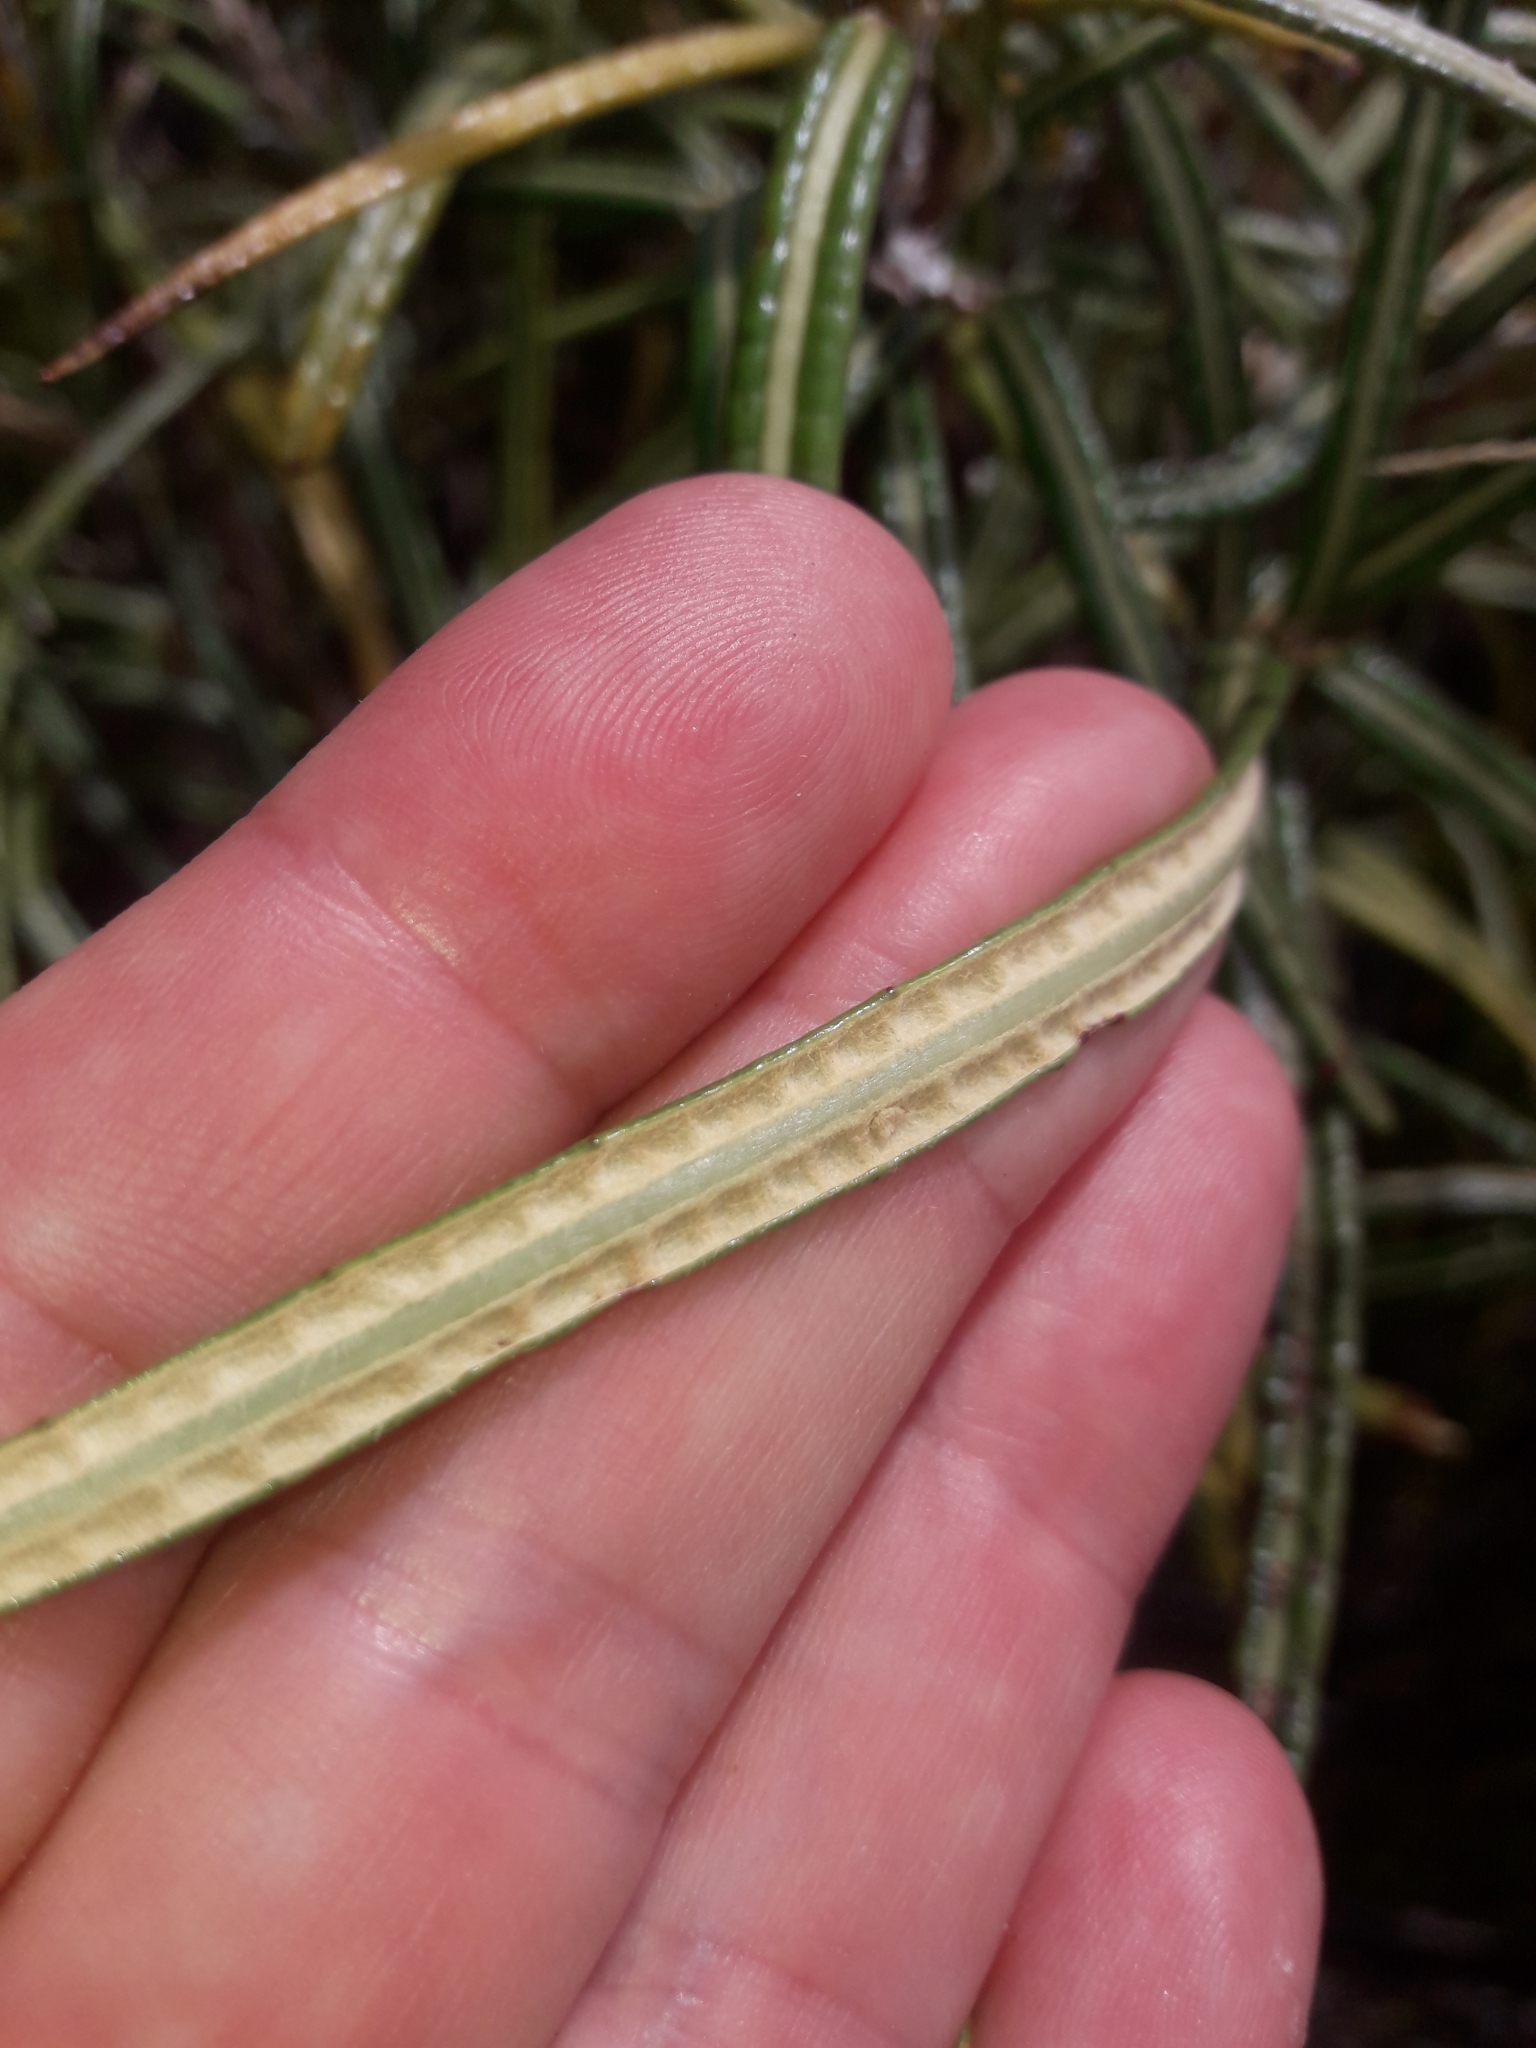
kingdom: Plantae
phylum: Tracheophyta
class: Magnoliopsida
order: Asterales
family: Asteraceae
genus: Olearia
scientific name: Olearia lacunosa
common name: Lancewood tree daisy
